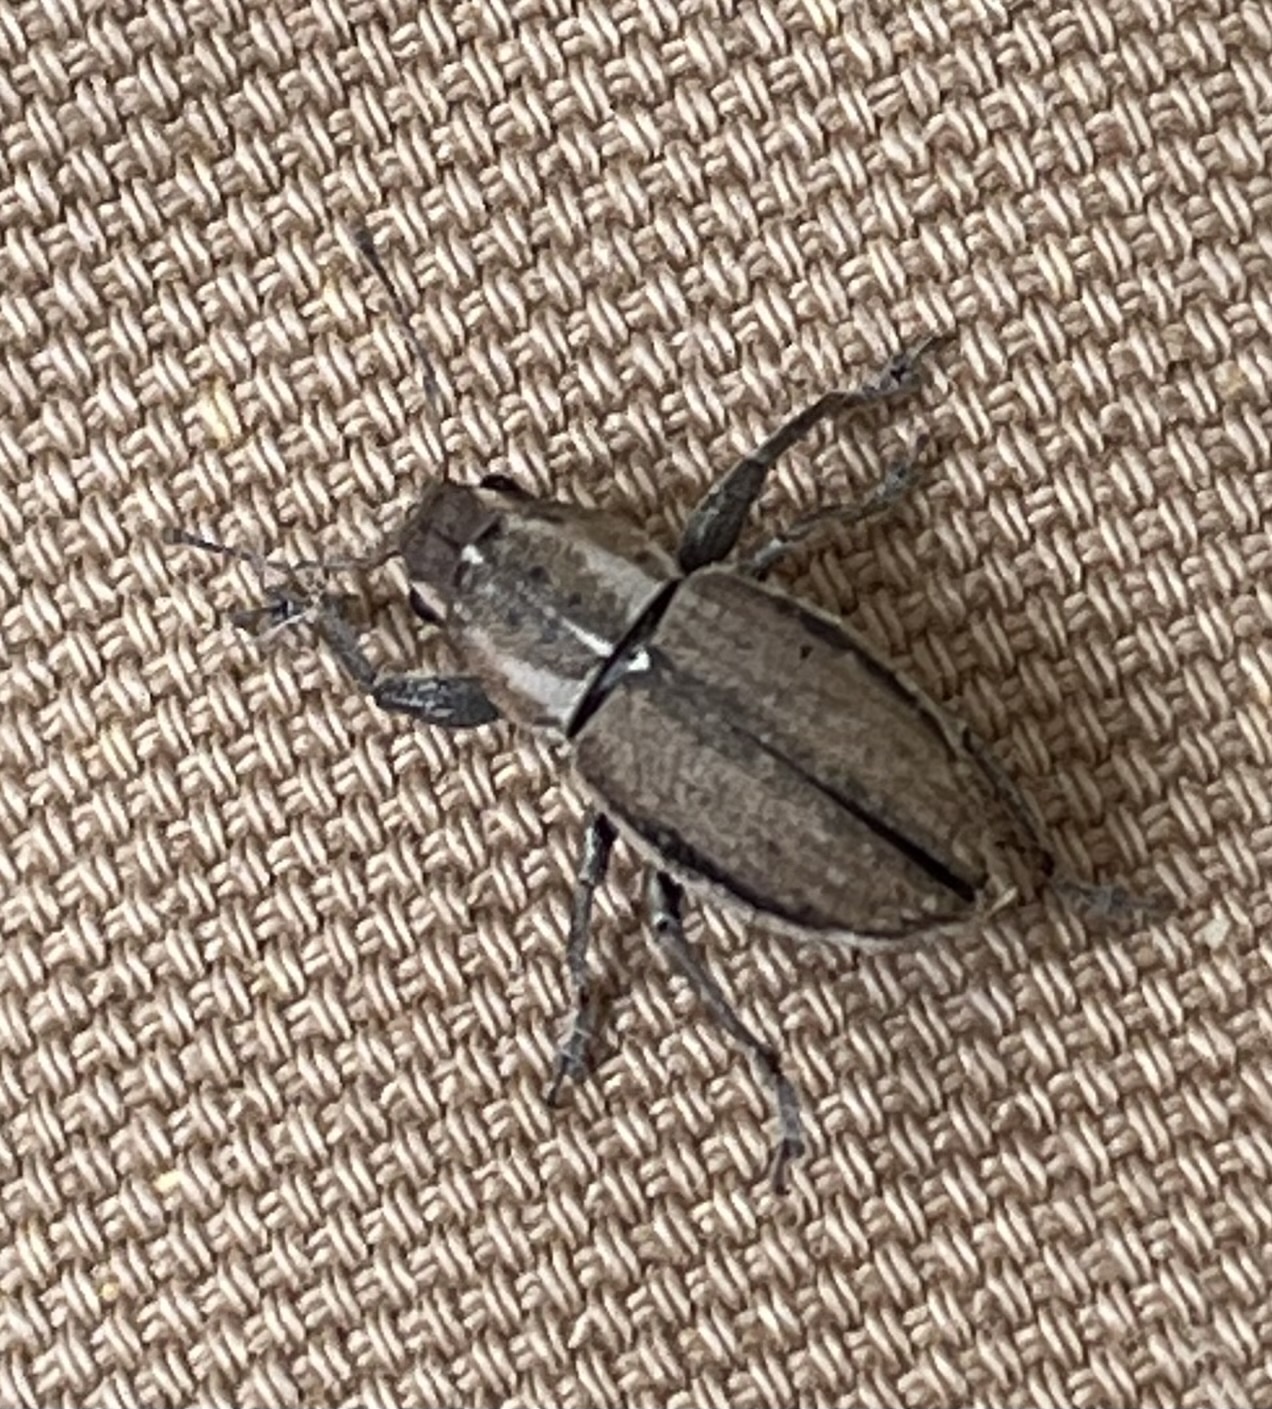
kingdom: Animalia
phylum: Arthropoda
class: Insecta
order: Coleoptera
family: Curculionidae
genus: Naupactus
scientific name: Naupactus peregrinus
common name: Whitefringed beetle
